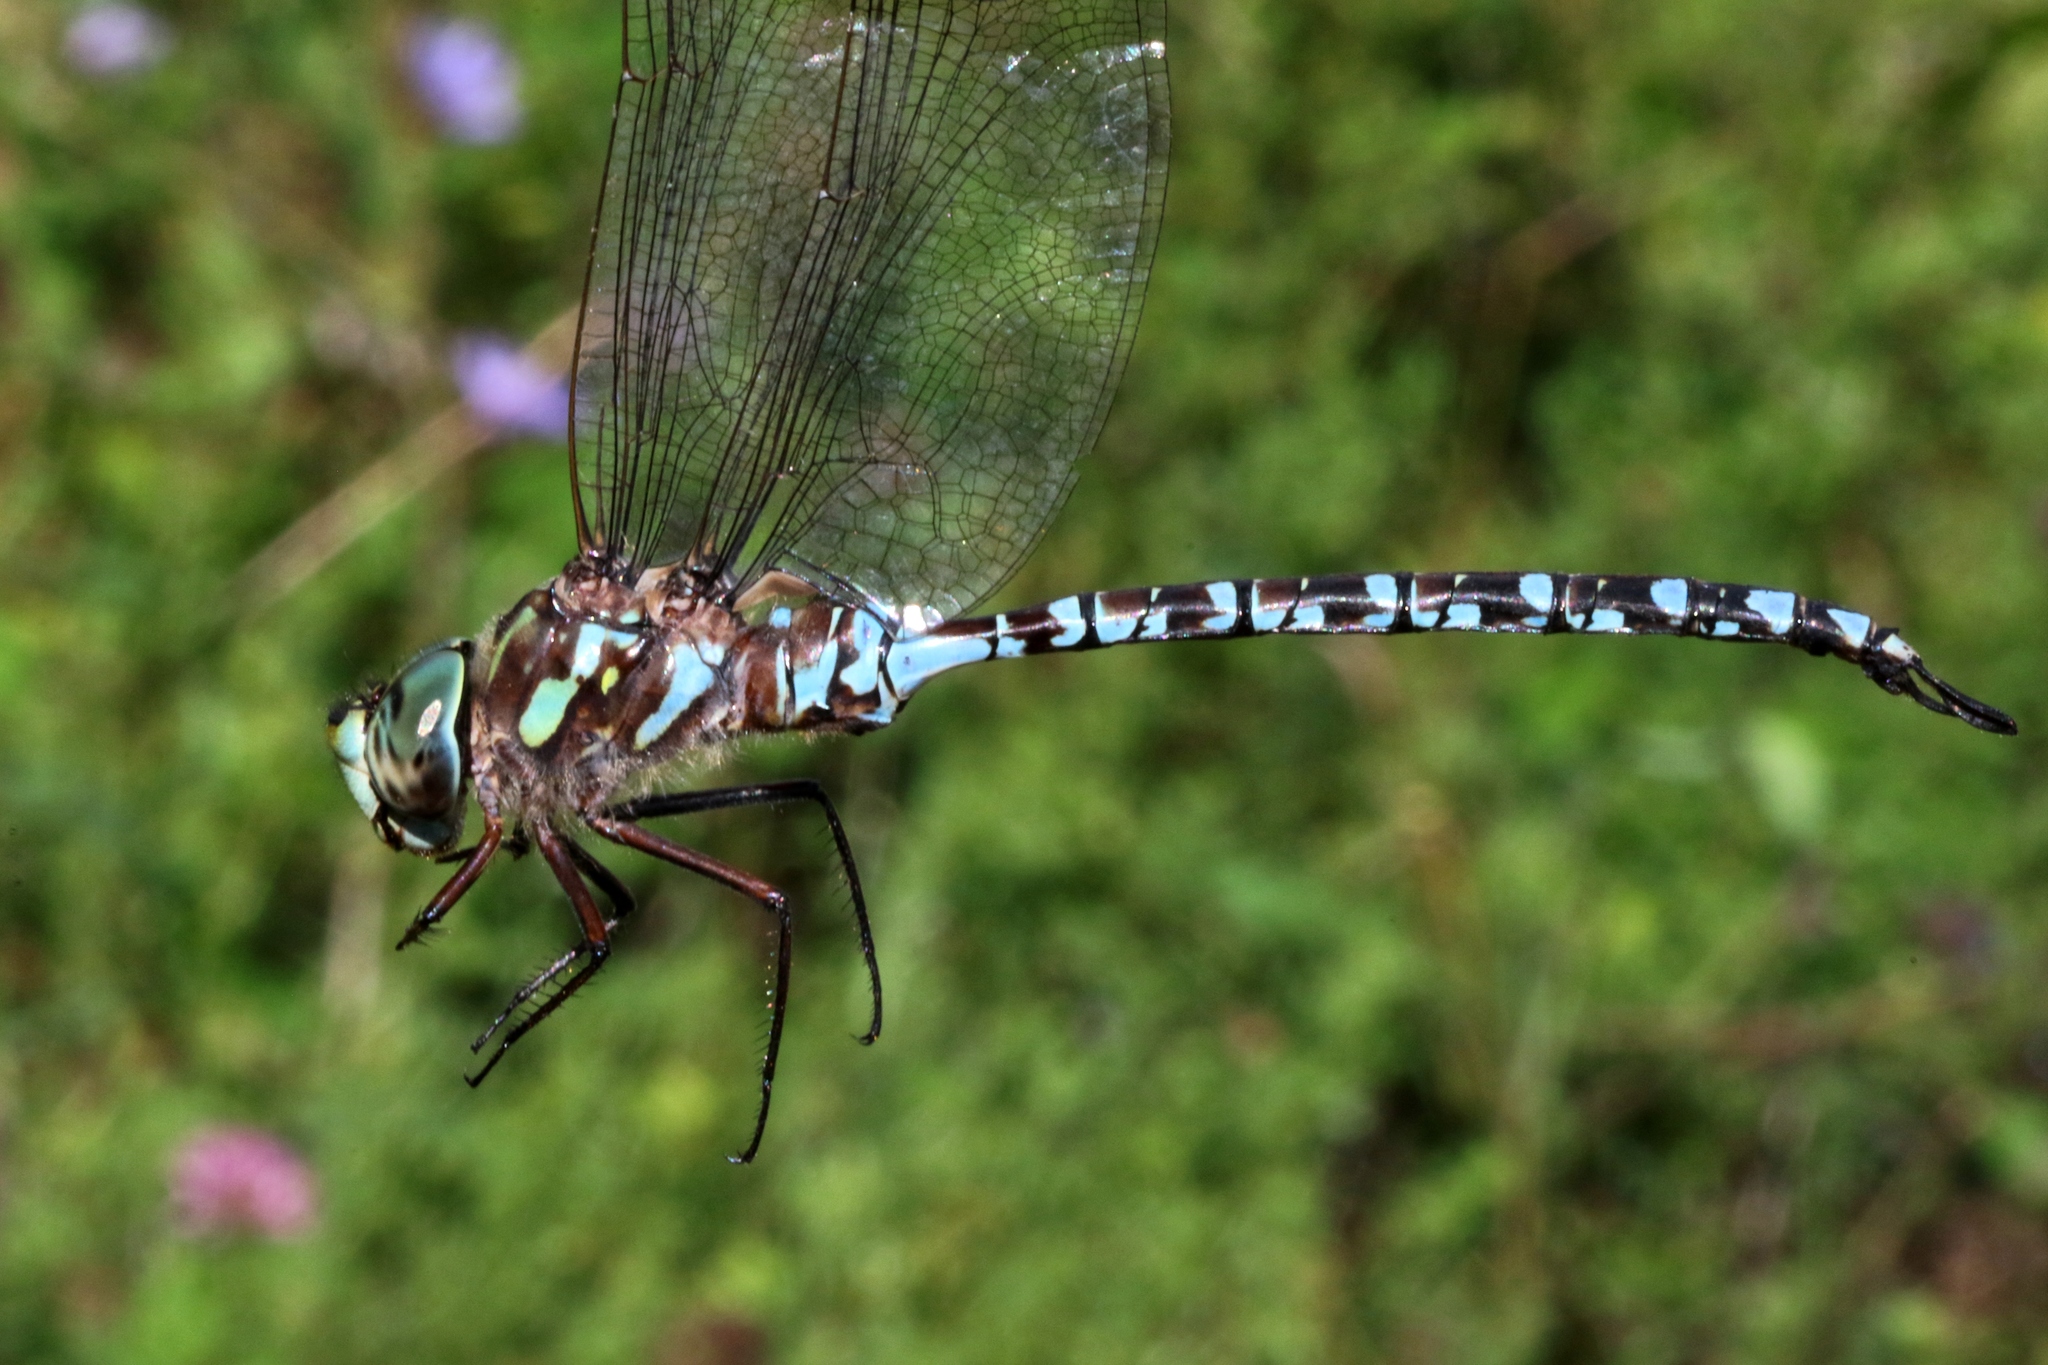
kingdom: Animalia
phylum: Arthropoda
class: Insecta
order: Odonata
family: Aeshnidae
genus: Aeshna
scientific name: Aeshna canadensis
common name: Canada darner
